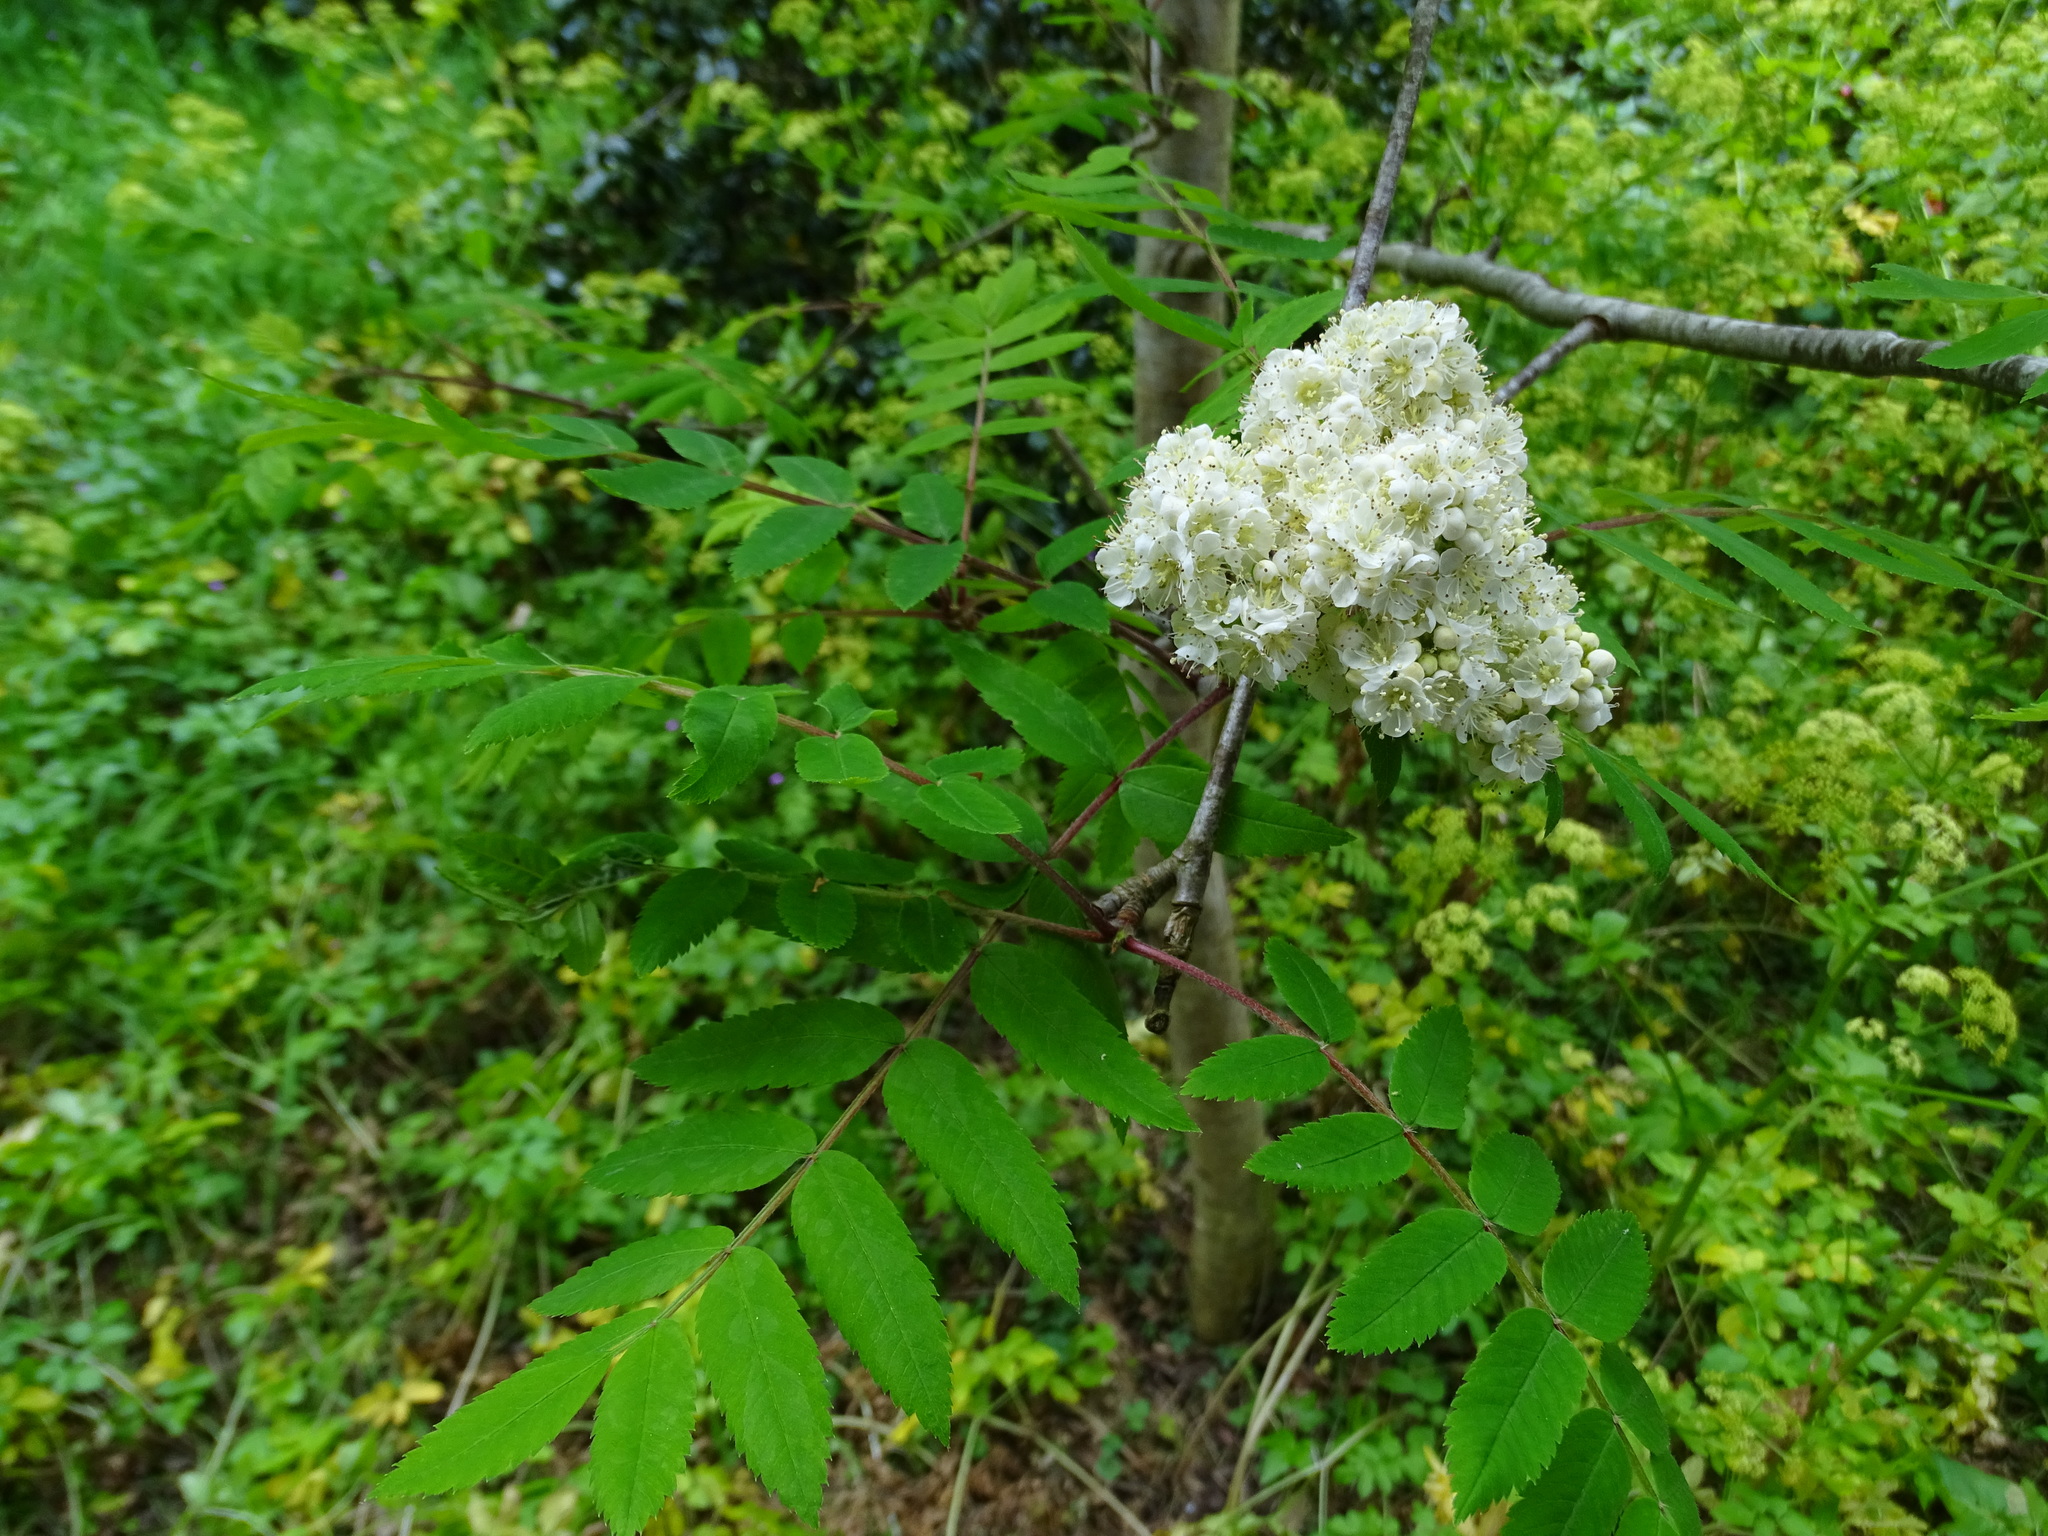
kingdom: Plantae
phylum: Tracheophyta
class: Magnoliopsida
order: Rosales
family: Rosaceae
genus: Sorbus
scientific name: Sorbus aucuparia
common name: Rowan
